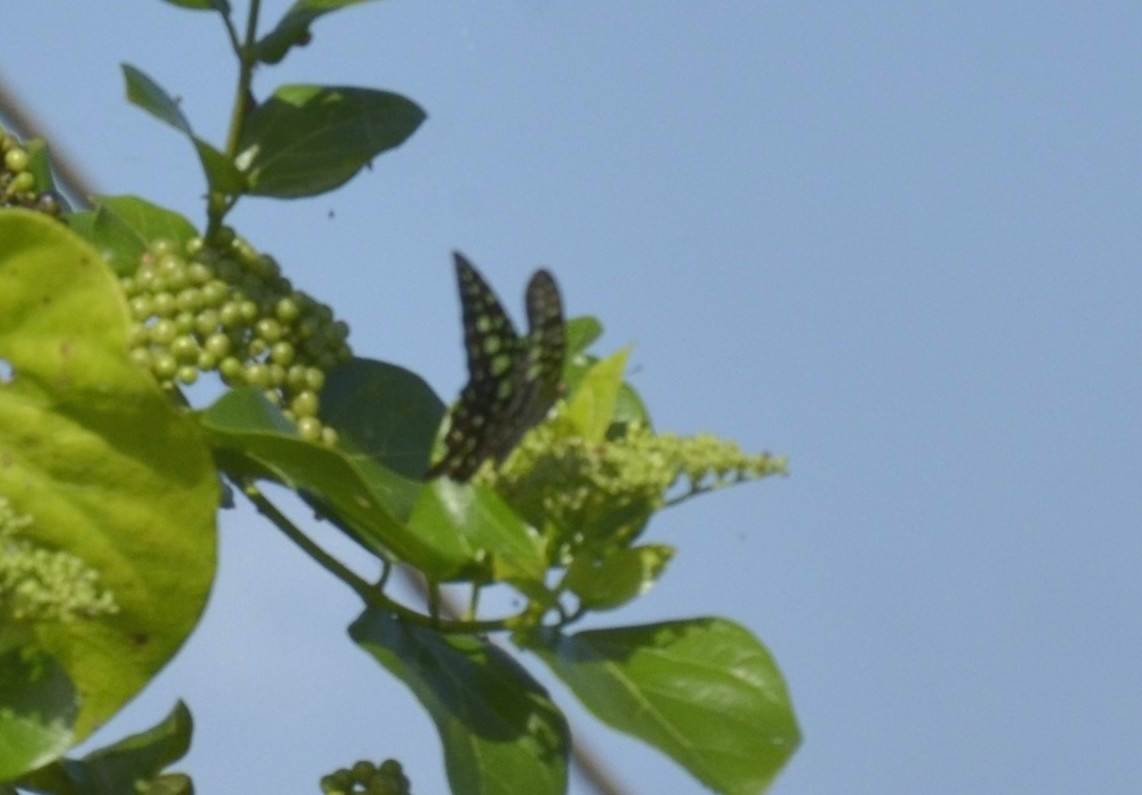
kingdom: Animalia
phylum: Arthropoda
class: Insecta
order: Lepidoptera
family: Papilionidae
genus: Graphium
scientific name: Graphium agamemnon
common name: Tailed jay
